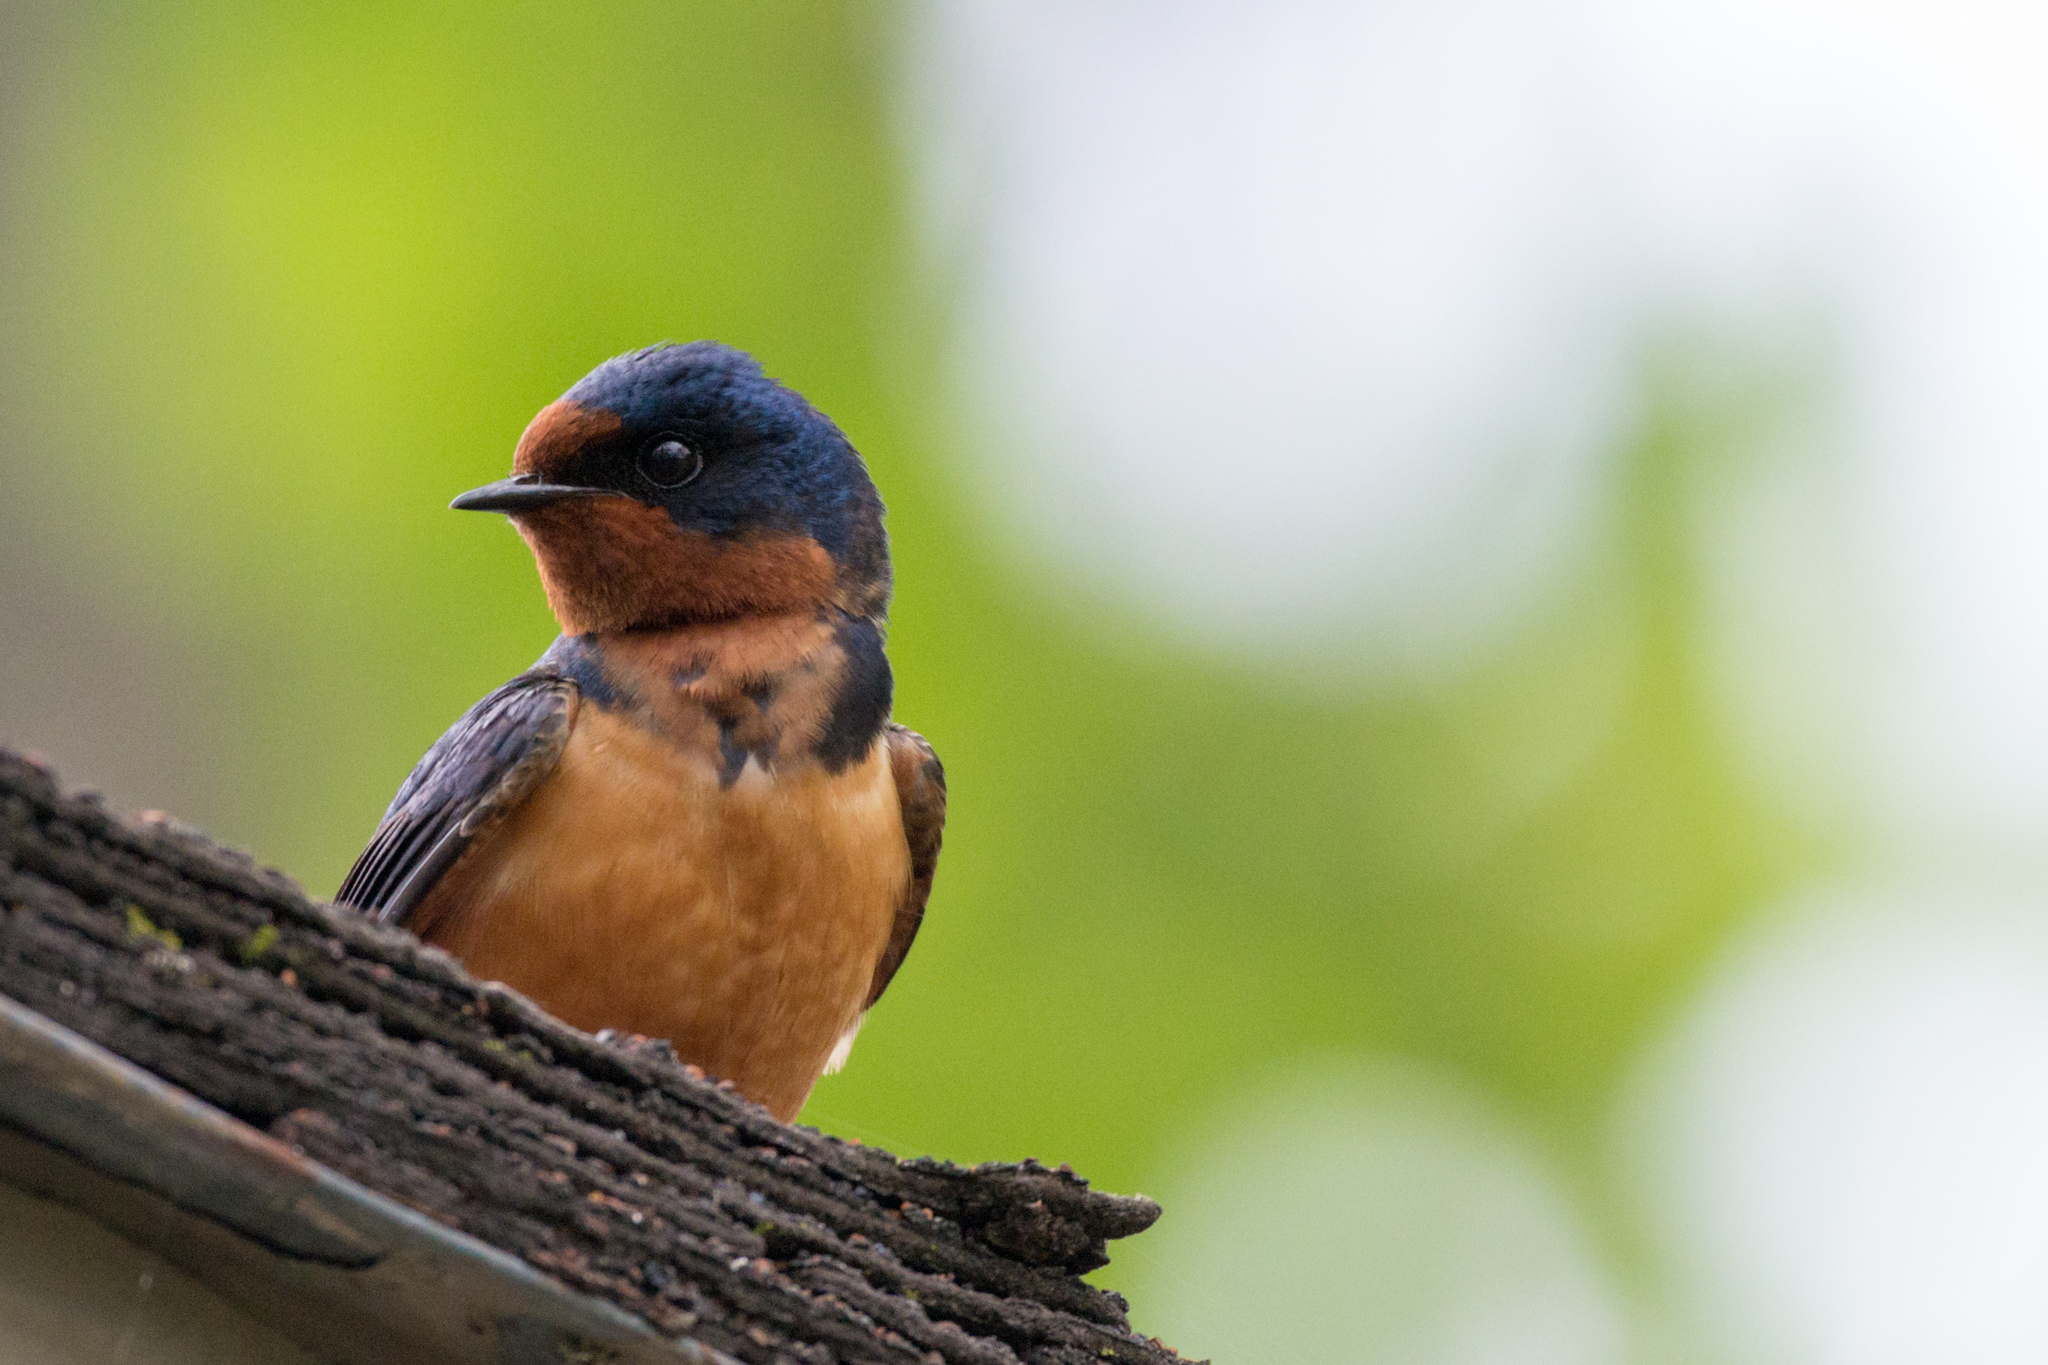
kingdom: Animalia
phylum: Chordata
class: Aves
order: Passeriformes
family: Hirundinidae
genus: Hirundo
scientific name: Hirundo rustica
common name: Barn swallow
